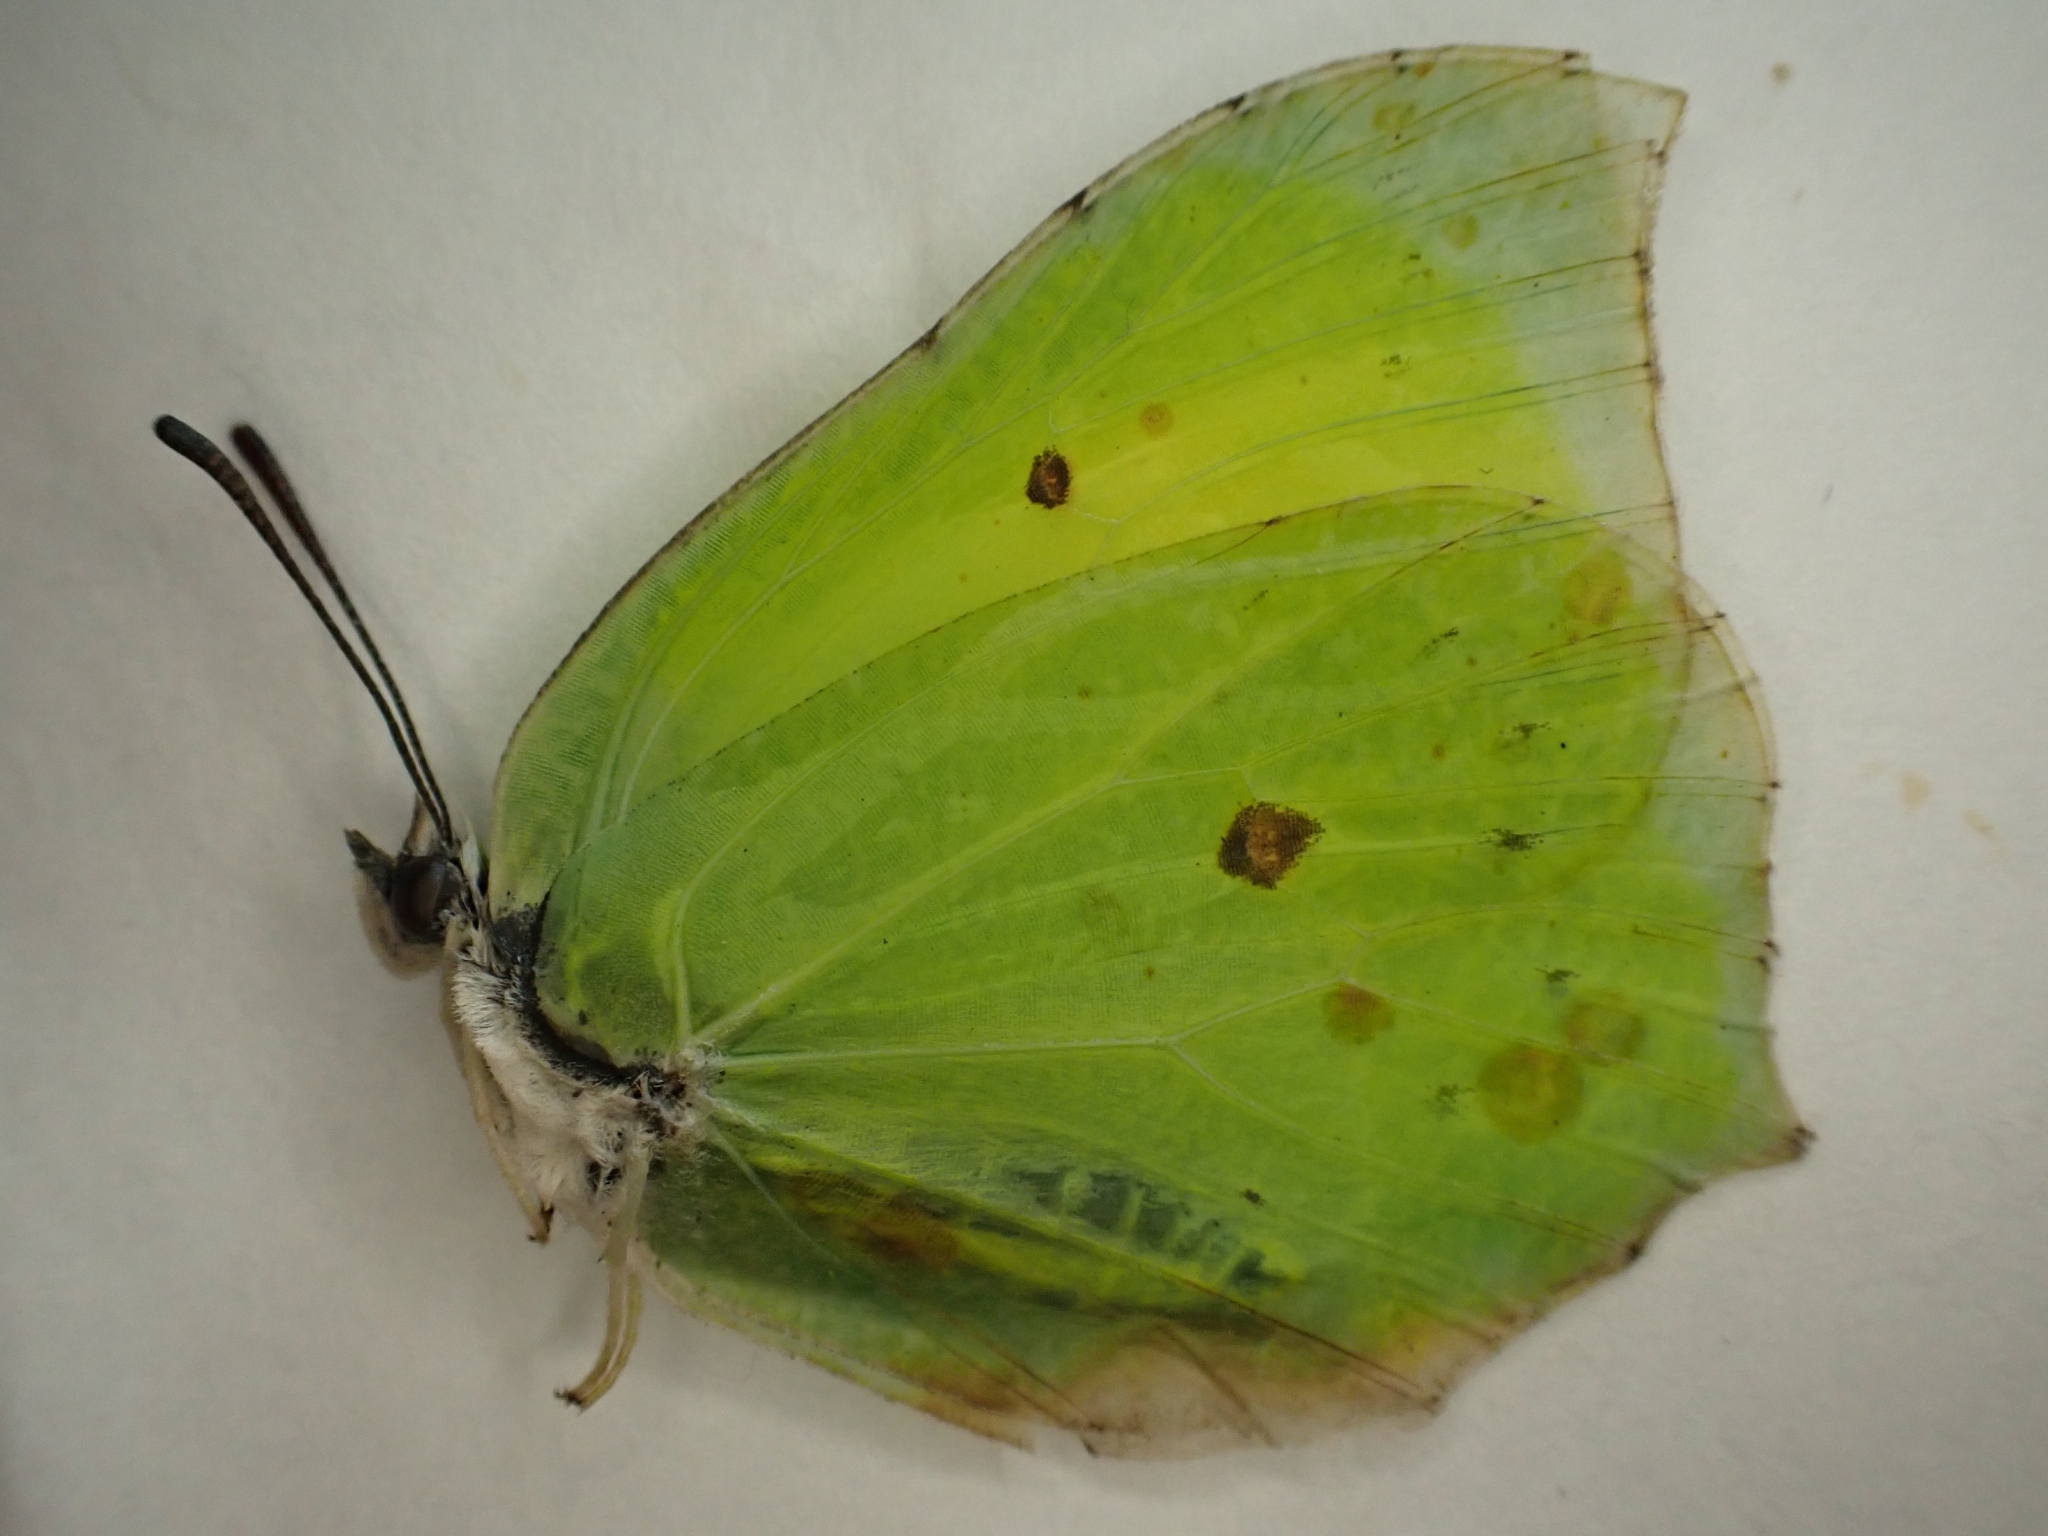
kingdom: Animalia
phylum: Arthropoda
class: Insecta
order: Lepidoptera
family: Pieridae
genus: Gonepteryx
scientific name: Gonepteryx rhamni
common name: Brimstone
